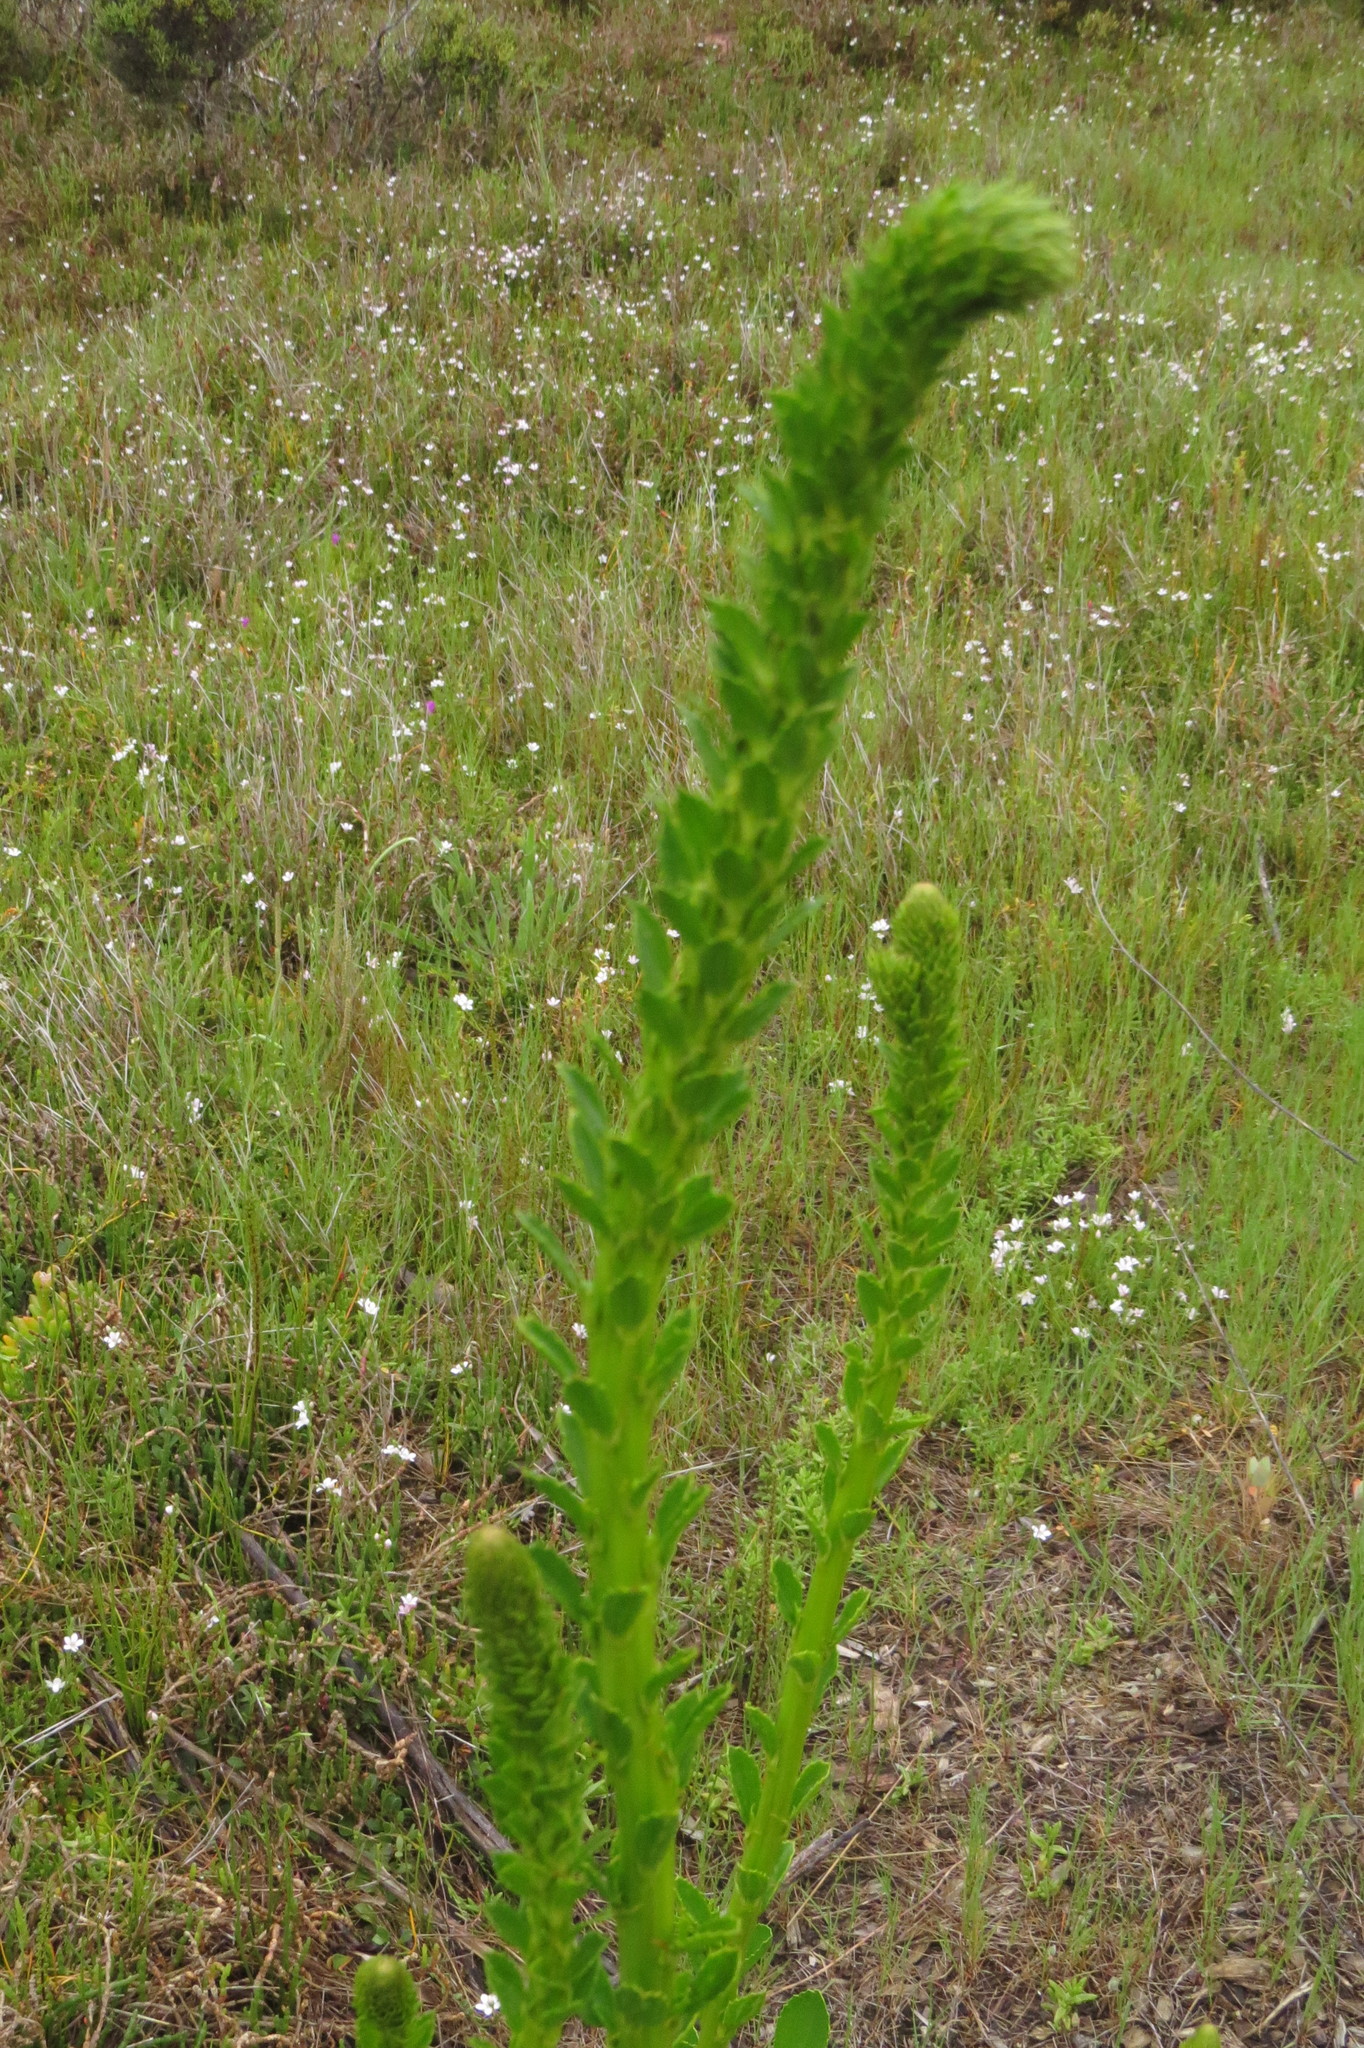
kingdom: Plantae
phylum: Tracheophyta
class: Magnoliopsida
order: Malvales
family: Malvaceae
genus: Lawrencia
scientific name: Lawrencia spicata
